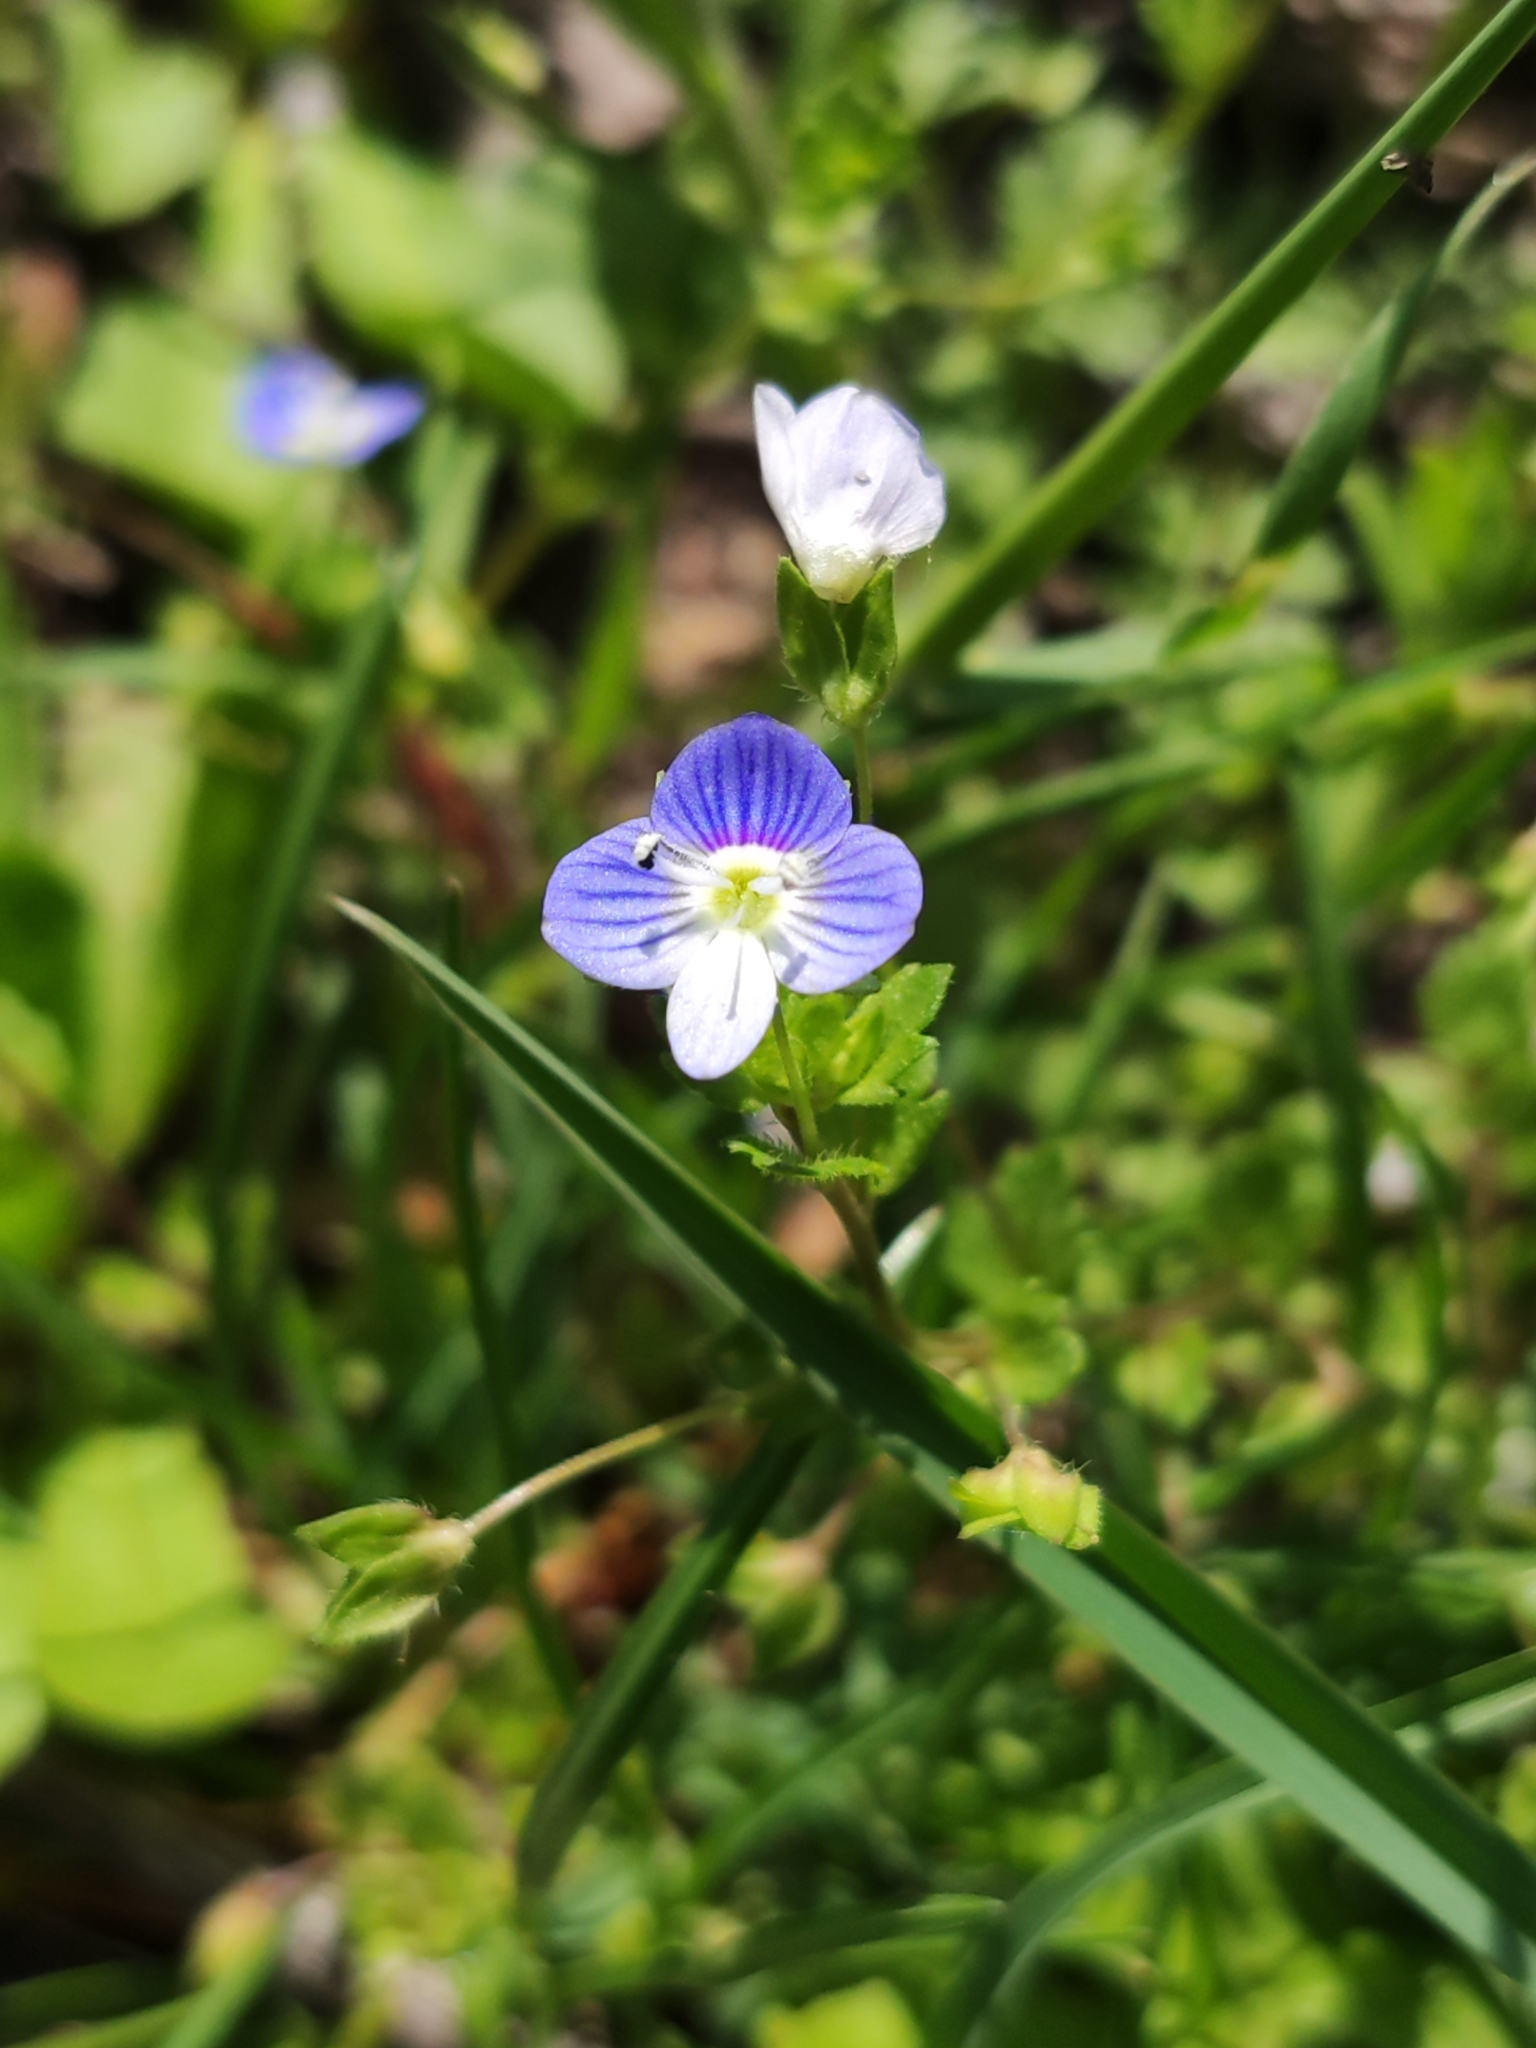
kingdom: Plantae
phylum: Tracheophyta
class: Magnoliopsida
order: Lamiales
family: Plantaginaceae
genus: Veronica
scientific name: Veronica persica
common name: Common field-speedwell
